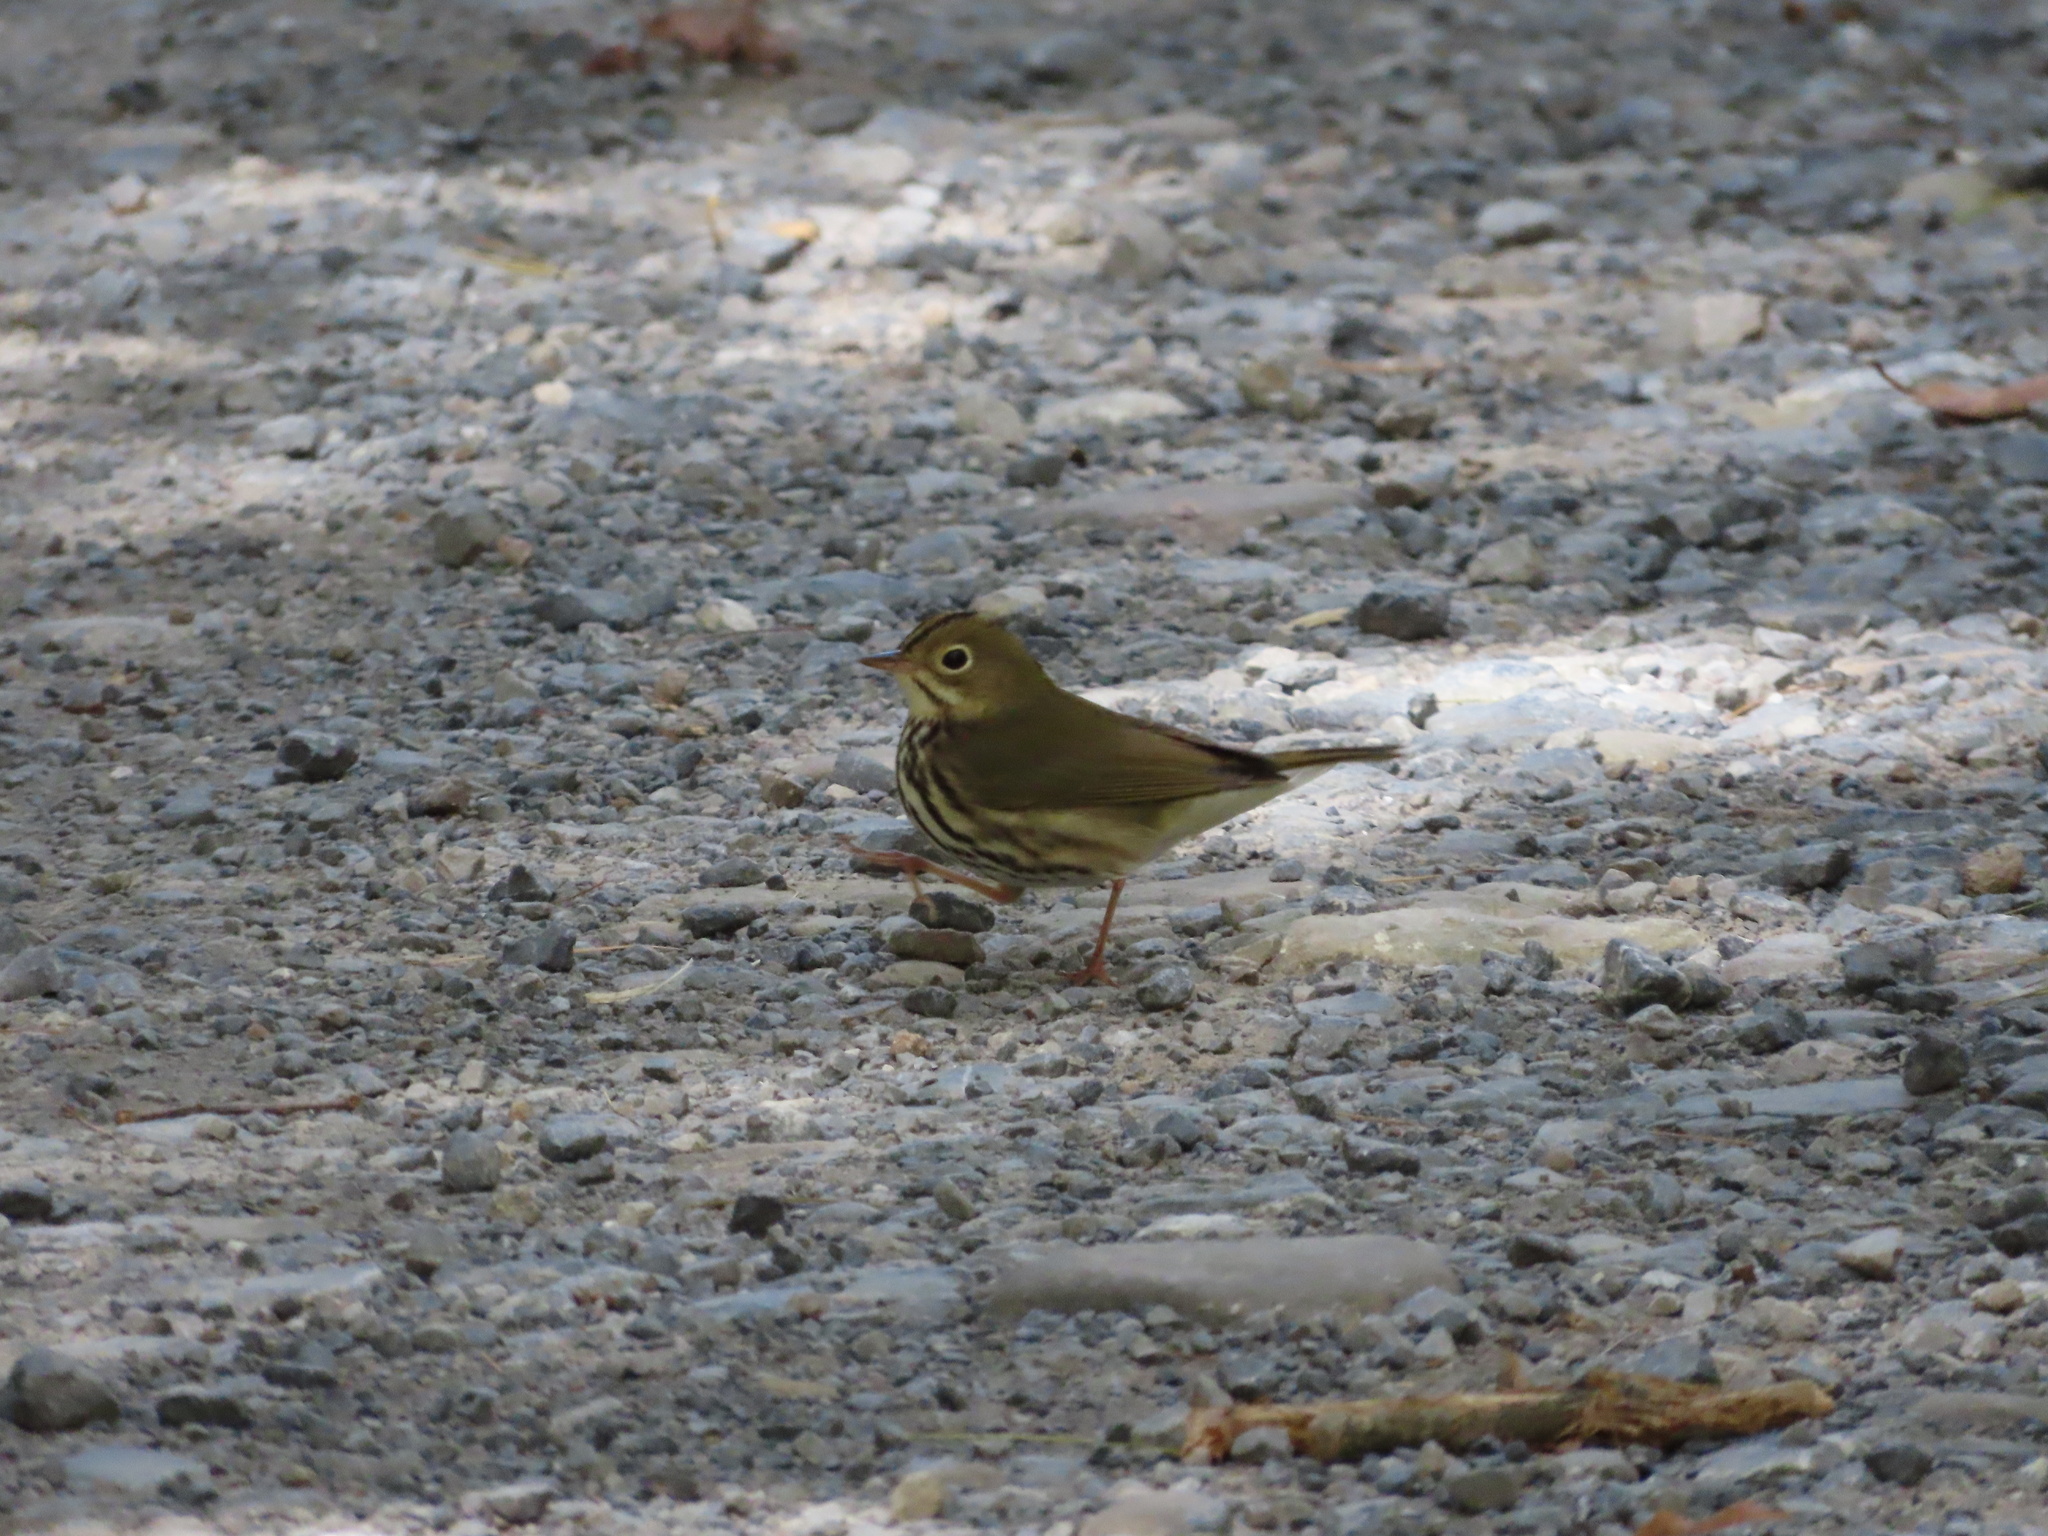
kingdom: Animalia
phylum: Chordata
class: Aves
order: Passeriformes
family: Parulidae
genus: Seiurus
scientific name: Seiurus aurocapilla
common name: Ovenbird
